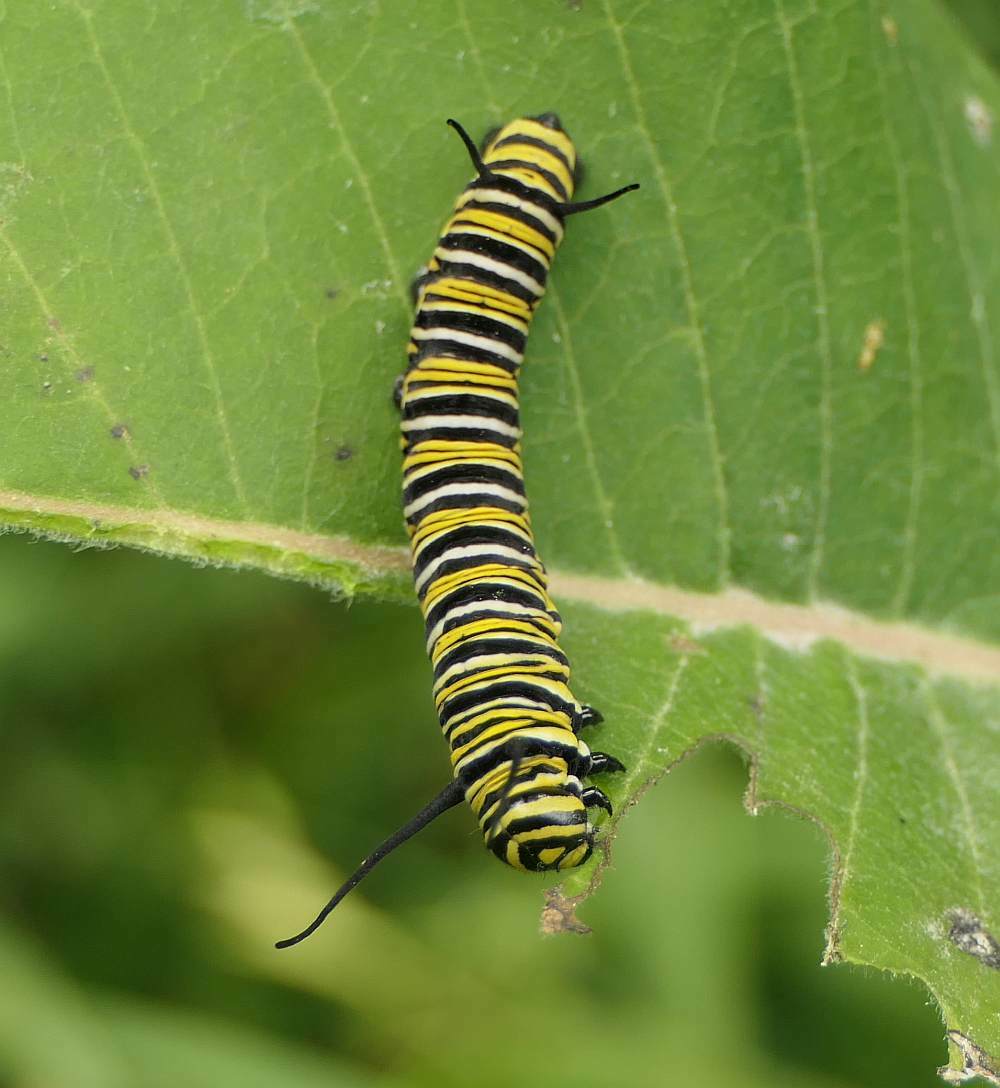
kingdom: Animalia
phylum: Arthropoda
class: Insecta
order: Lepidoptera
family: Nymphalidae
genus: Danaus
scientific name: Danaus plexippus
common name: Monarch
